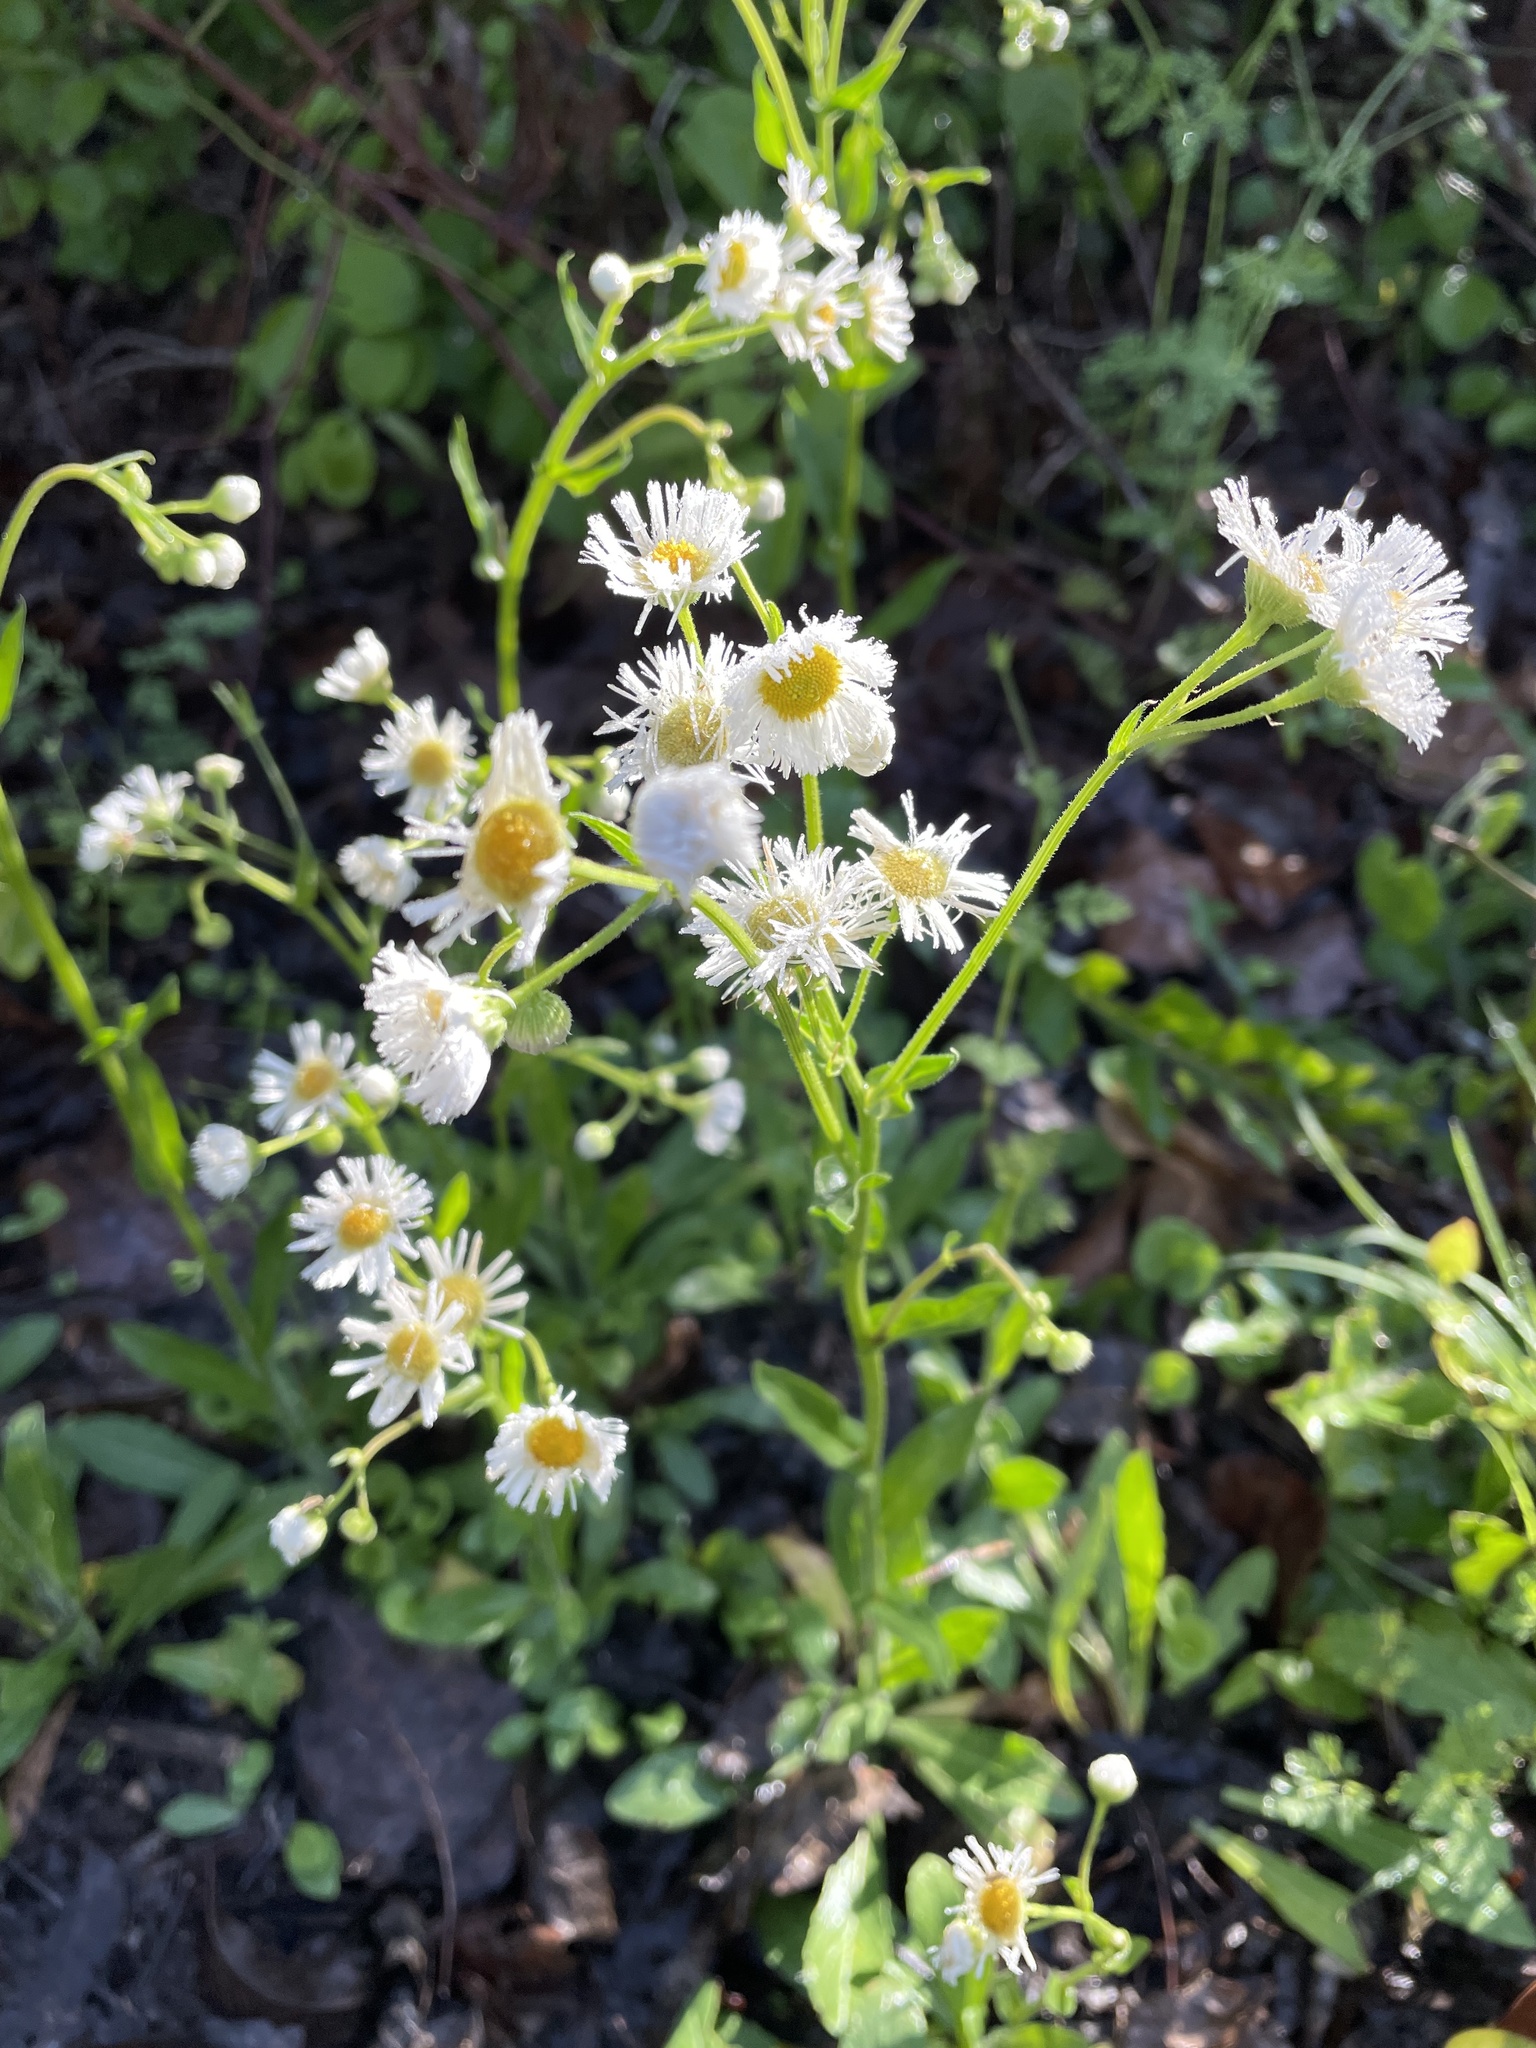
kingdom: Plantae
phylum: Tracheophyta
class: Magnoliopsida
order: Asterales
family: Asteraceae
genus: Erigeron
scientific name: Erigeron philadelphicus
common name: Robin's-plantain
